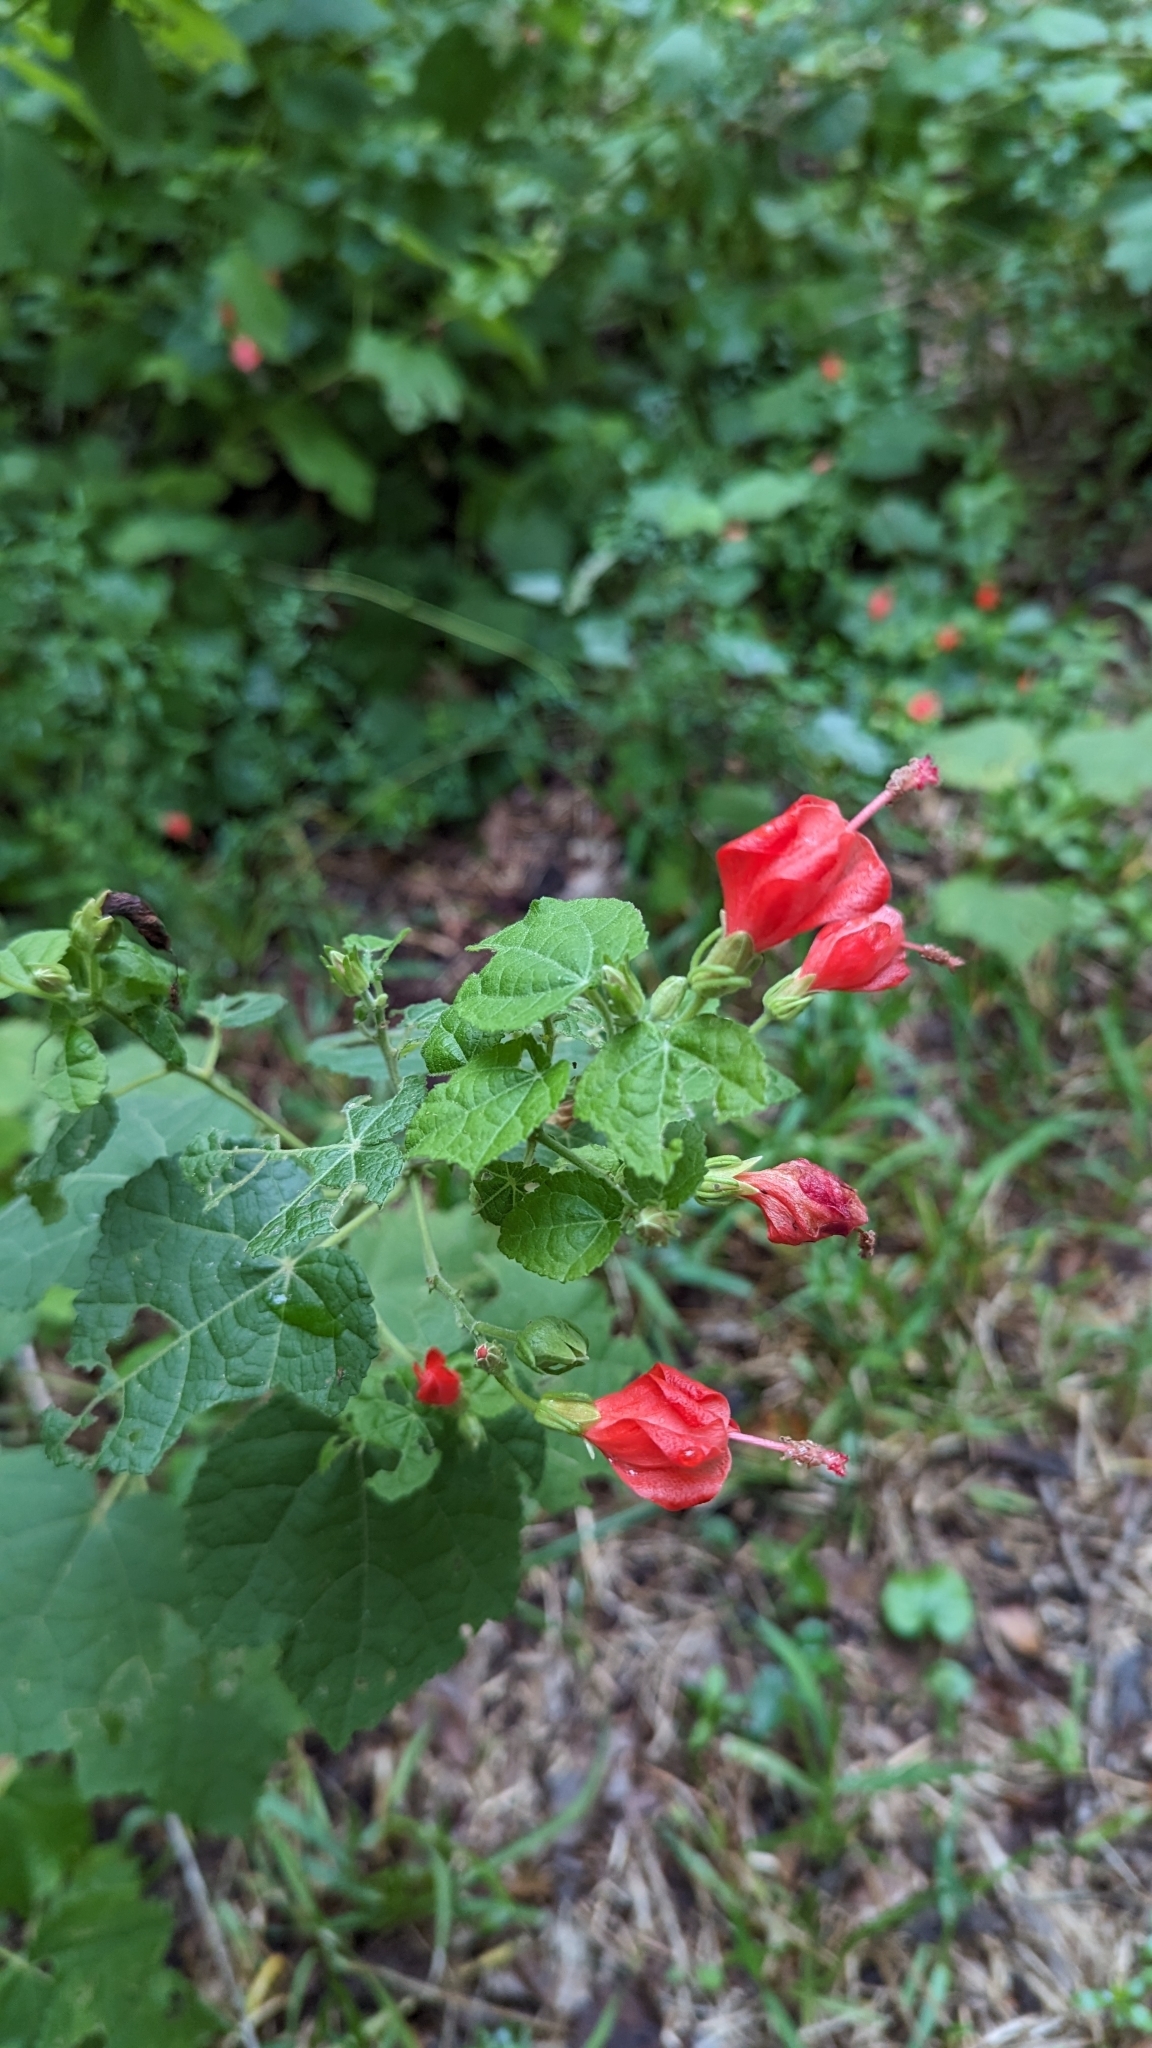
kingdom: Plantae
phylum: Tracheophyta
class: Magnoliopsida
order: Malvales
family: Malvaceae
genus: Malvaviscus
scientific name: Malvaviscus arboreus
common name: Wax mallow
